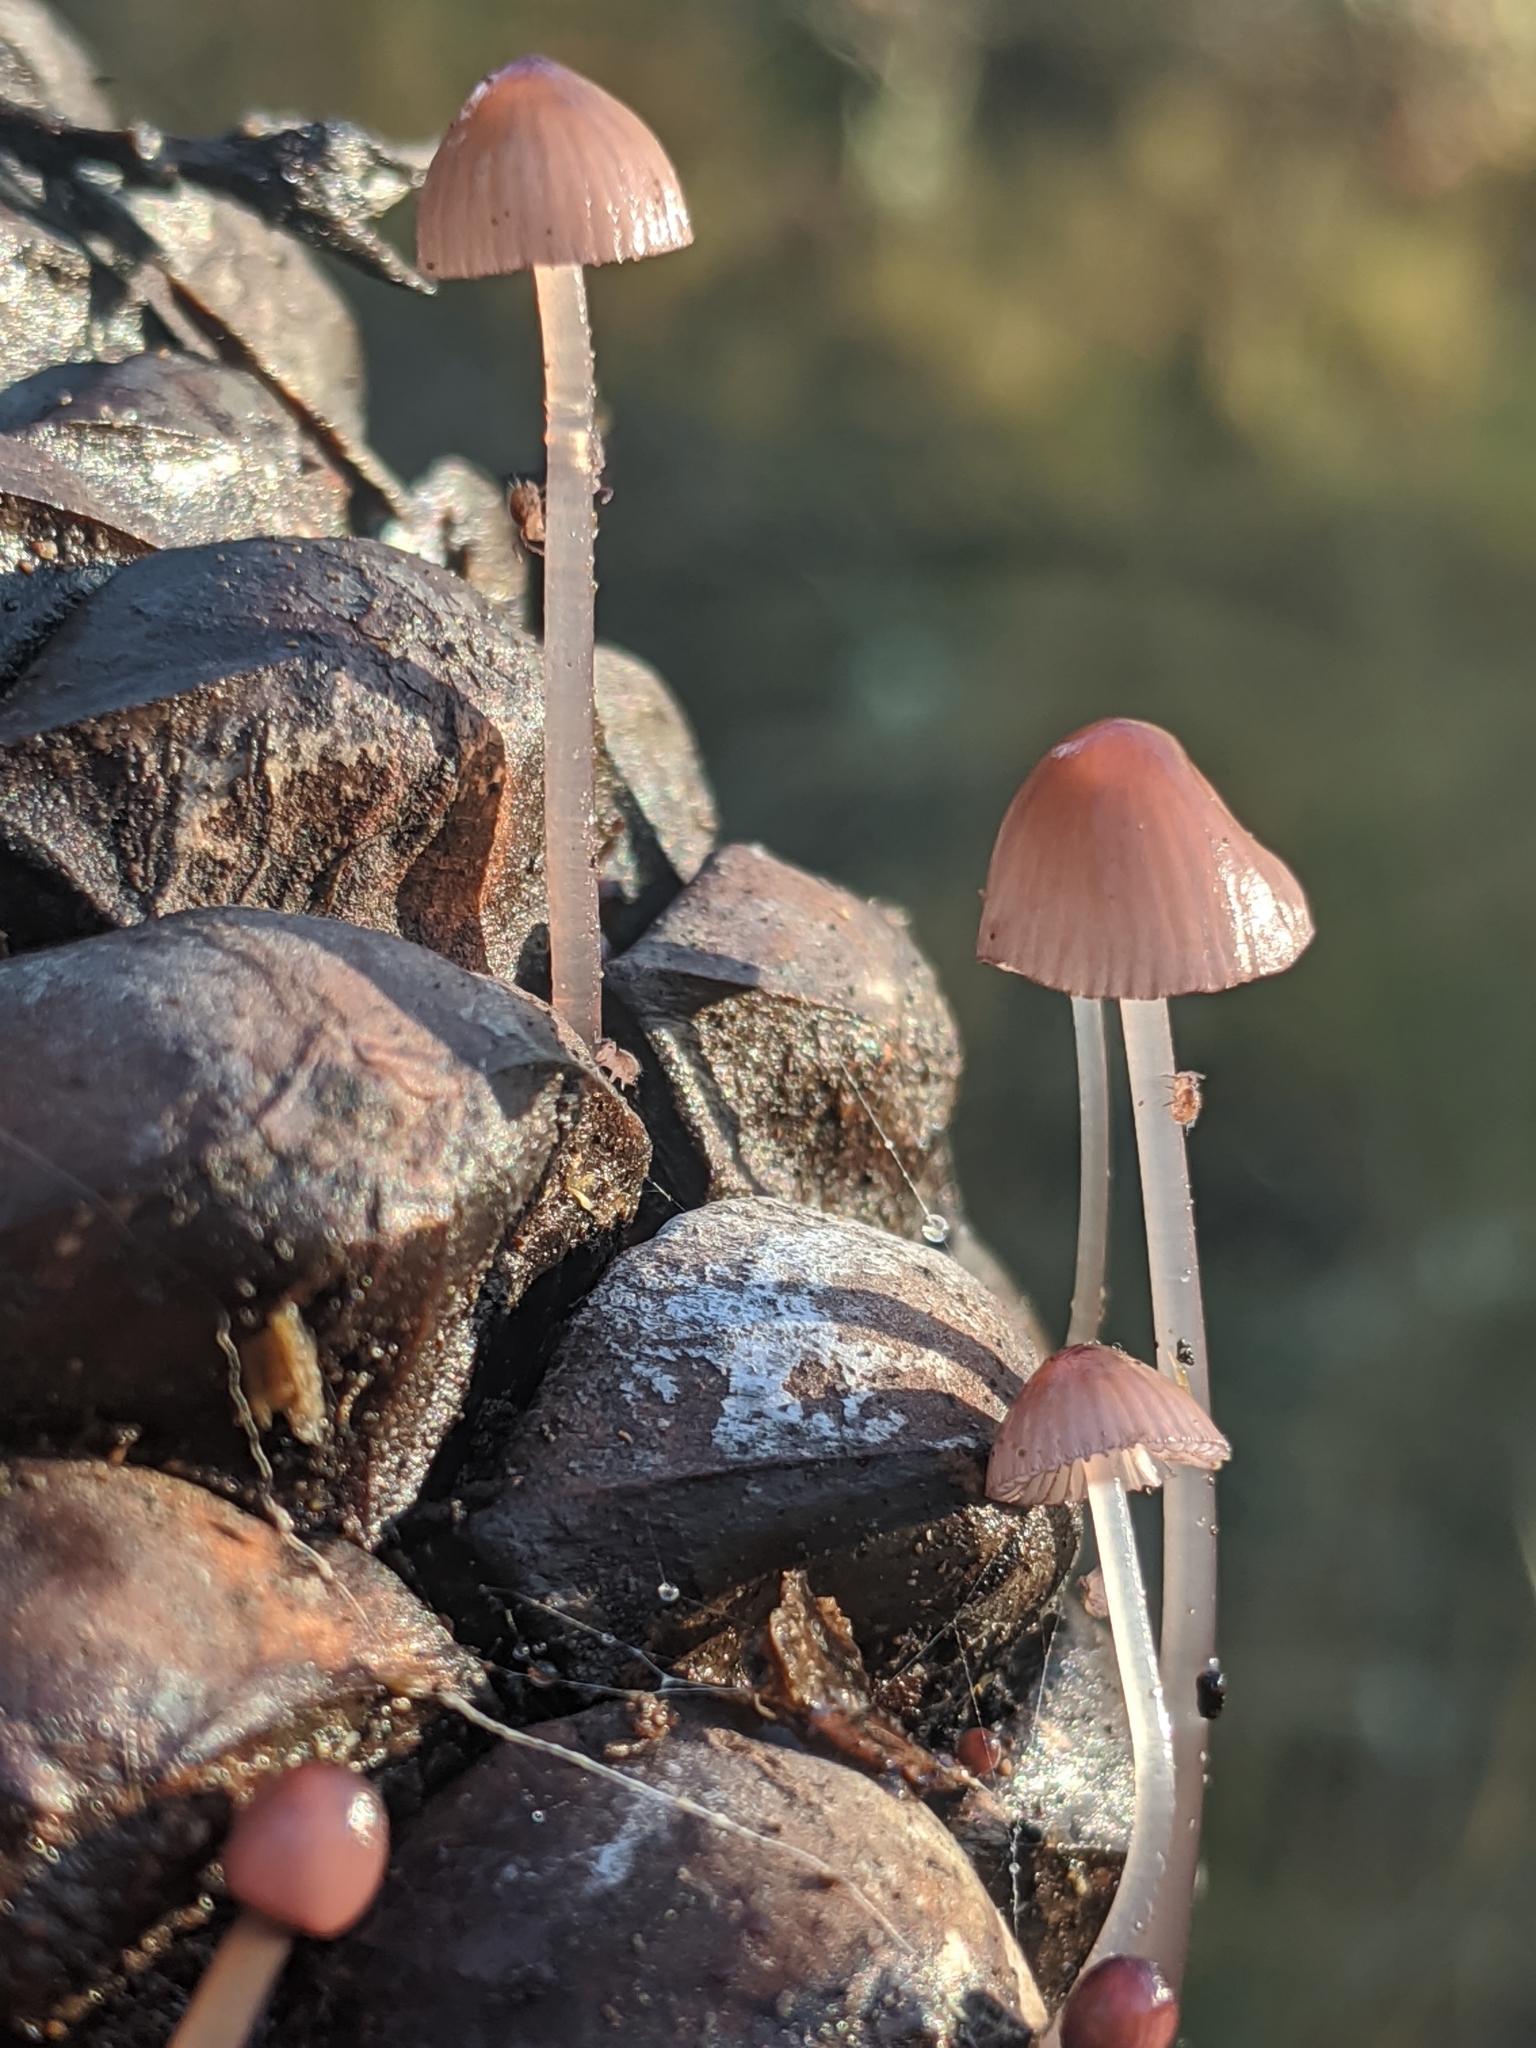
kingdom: Fungi
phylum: Basidiomycota
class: Agaricomycetes
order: Agaricales
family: Mycenaceae
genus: Mycena
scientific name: Mycena purpureofusca
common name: Purple edge bonnet
